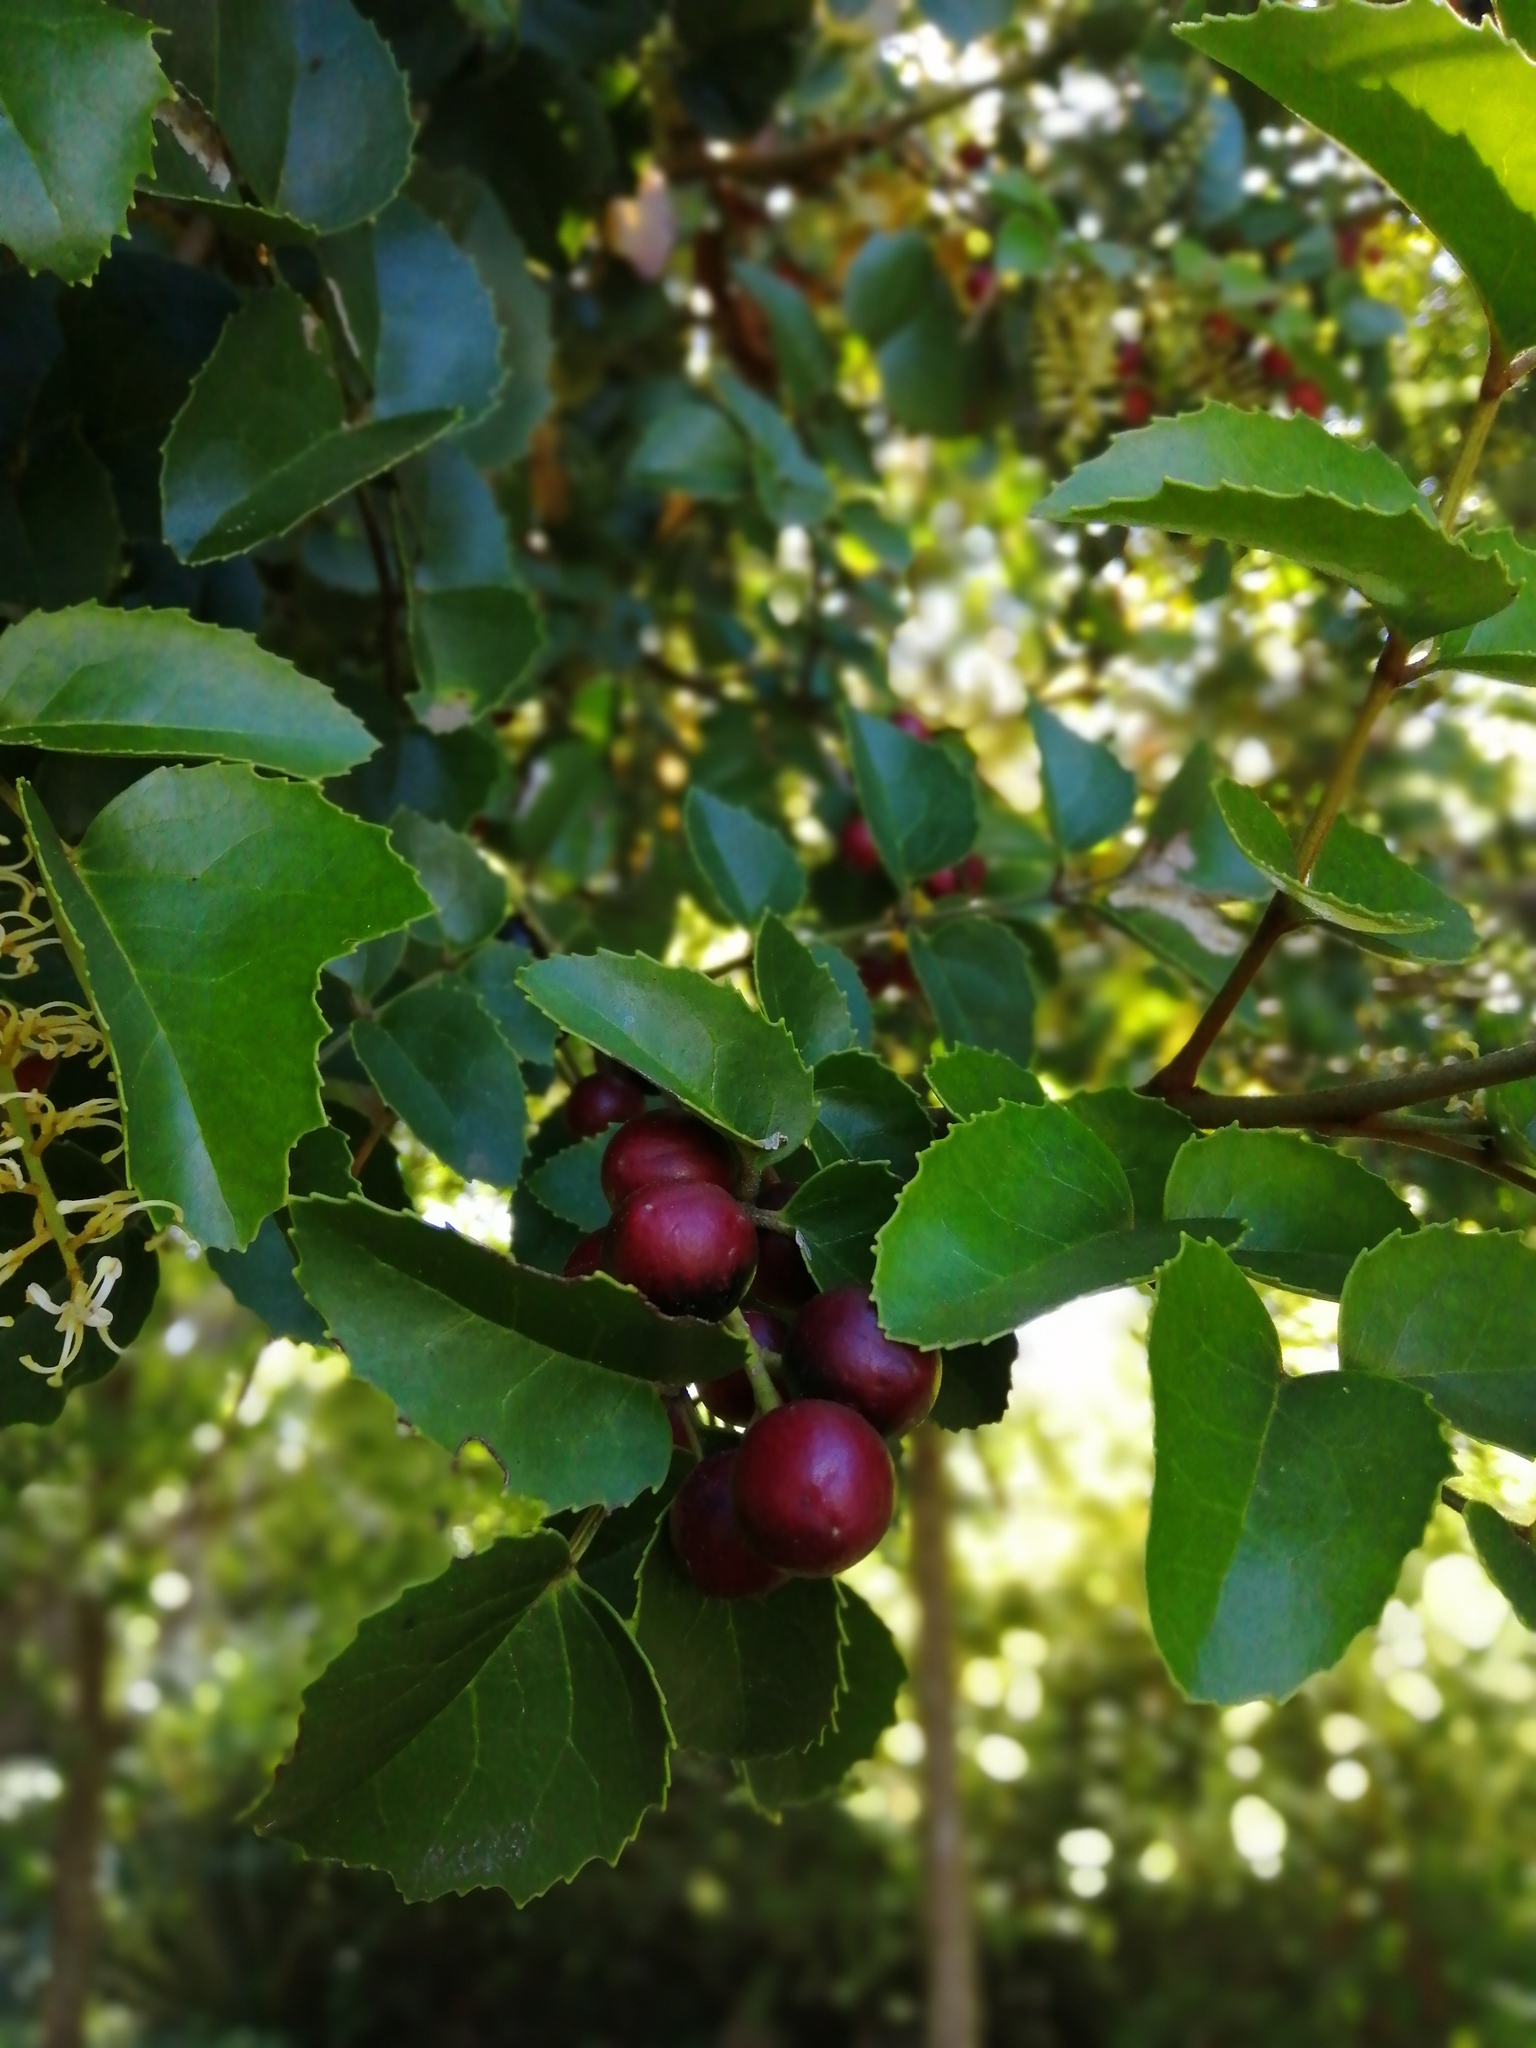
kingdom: Plantae
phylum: Tracheophyta
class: Magnoliopsida
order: Proteales
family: Proteaceae
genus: Gevuina
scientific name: Gevuina avellana
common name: Chilean hazel
